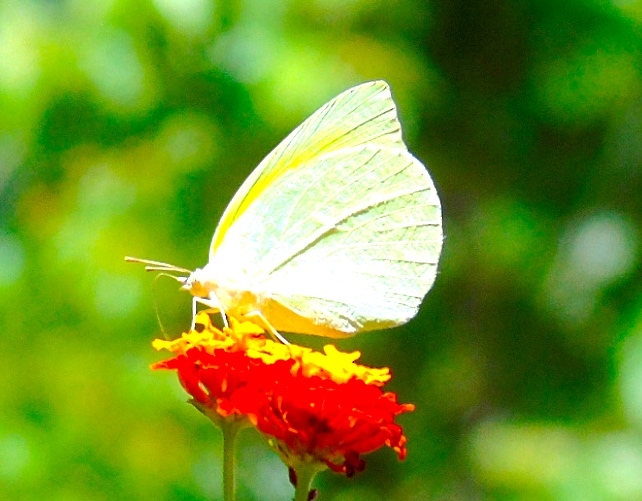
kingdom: Animalia
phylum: Arthropoda
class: Insecta
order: Lepidoptera
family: Pieridae
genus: Kricogonia
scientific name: Kricogonia lyside
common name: Guayacan sulphur,
